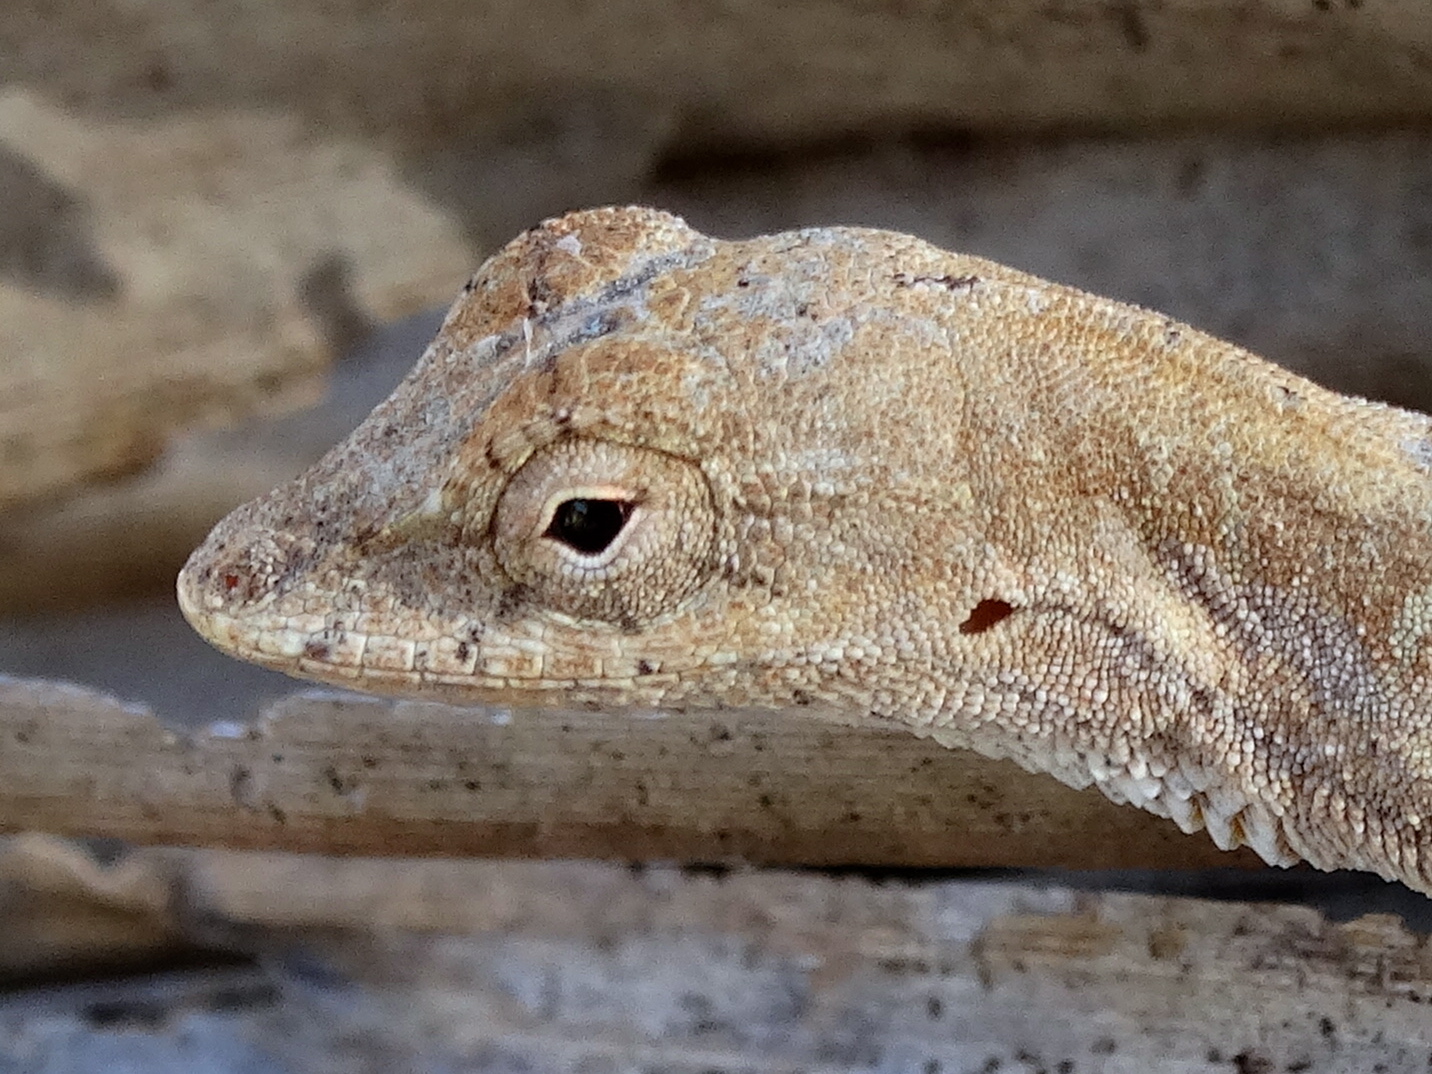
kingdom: Animalia
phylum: Chordata
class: Squamata
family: Dactyloidae
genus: Anolis
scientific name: Anolis nebulosus
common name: Clouded anole
